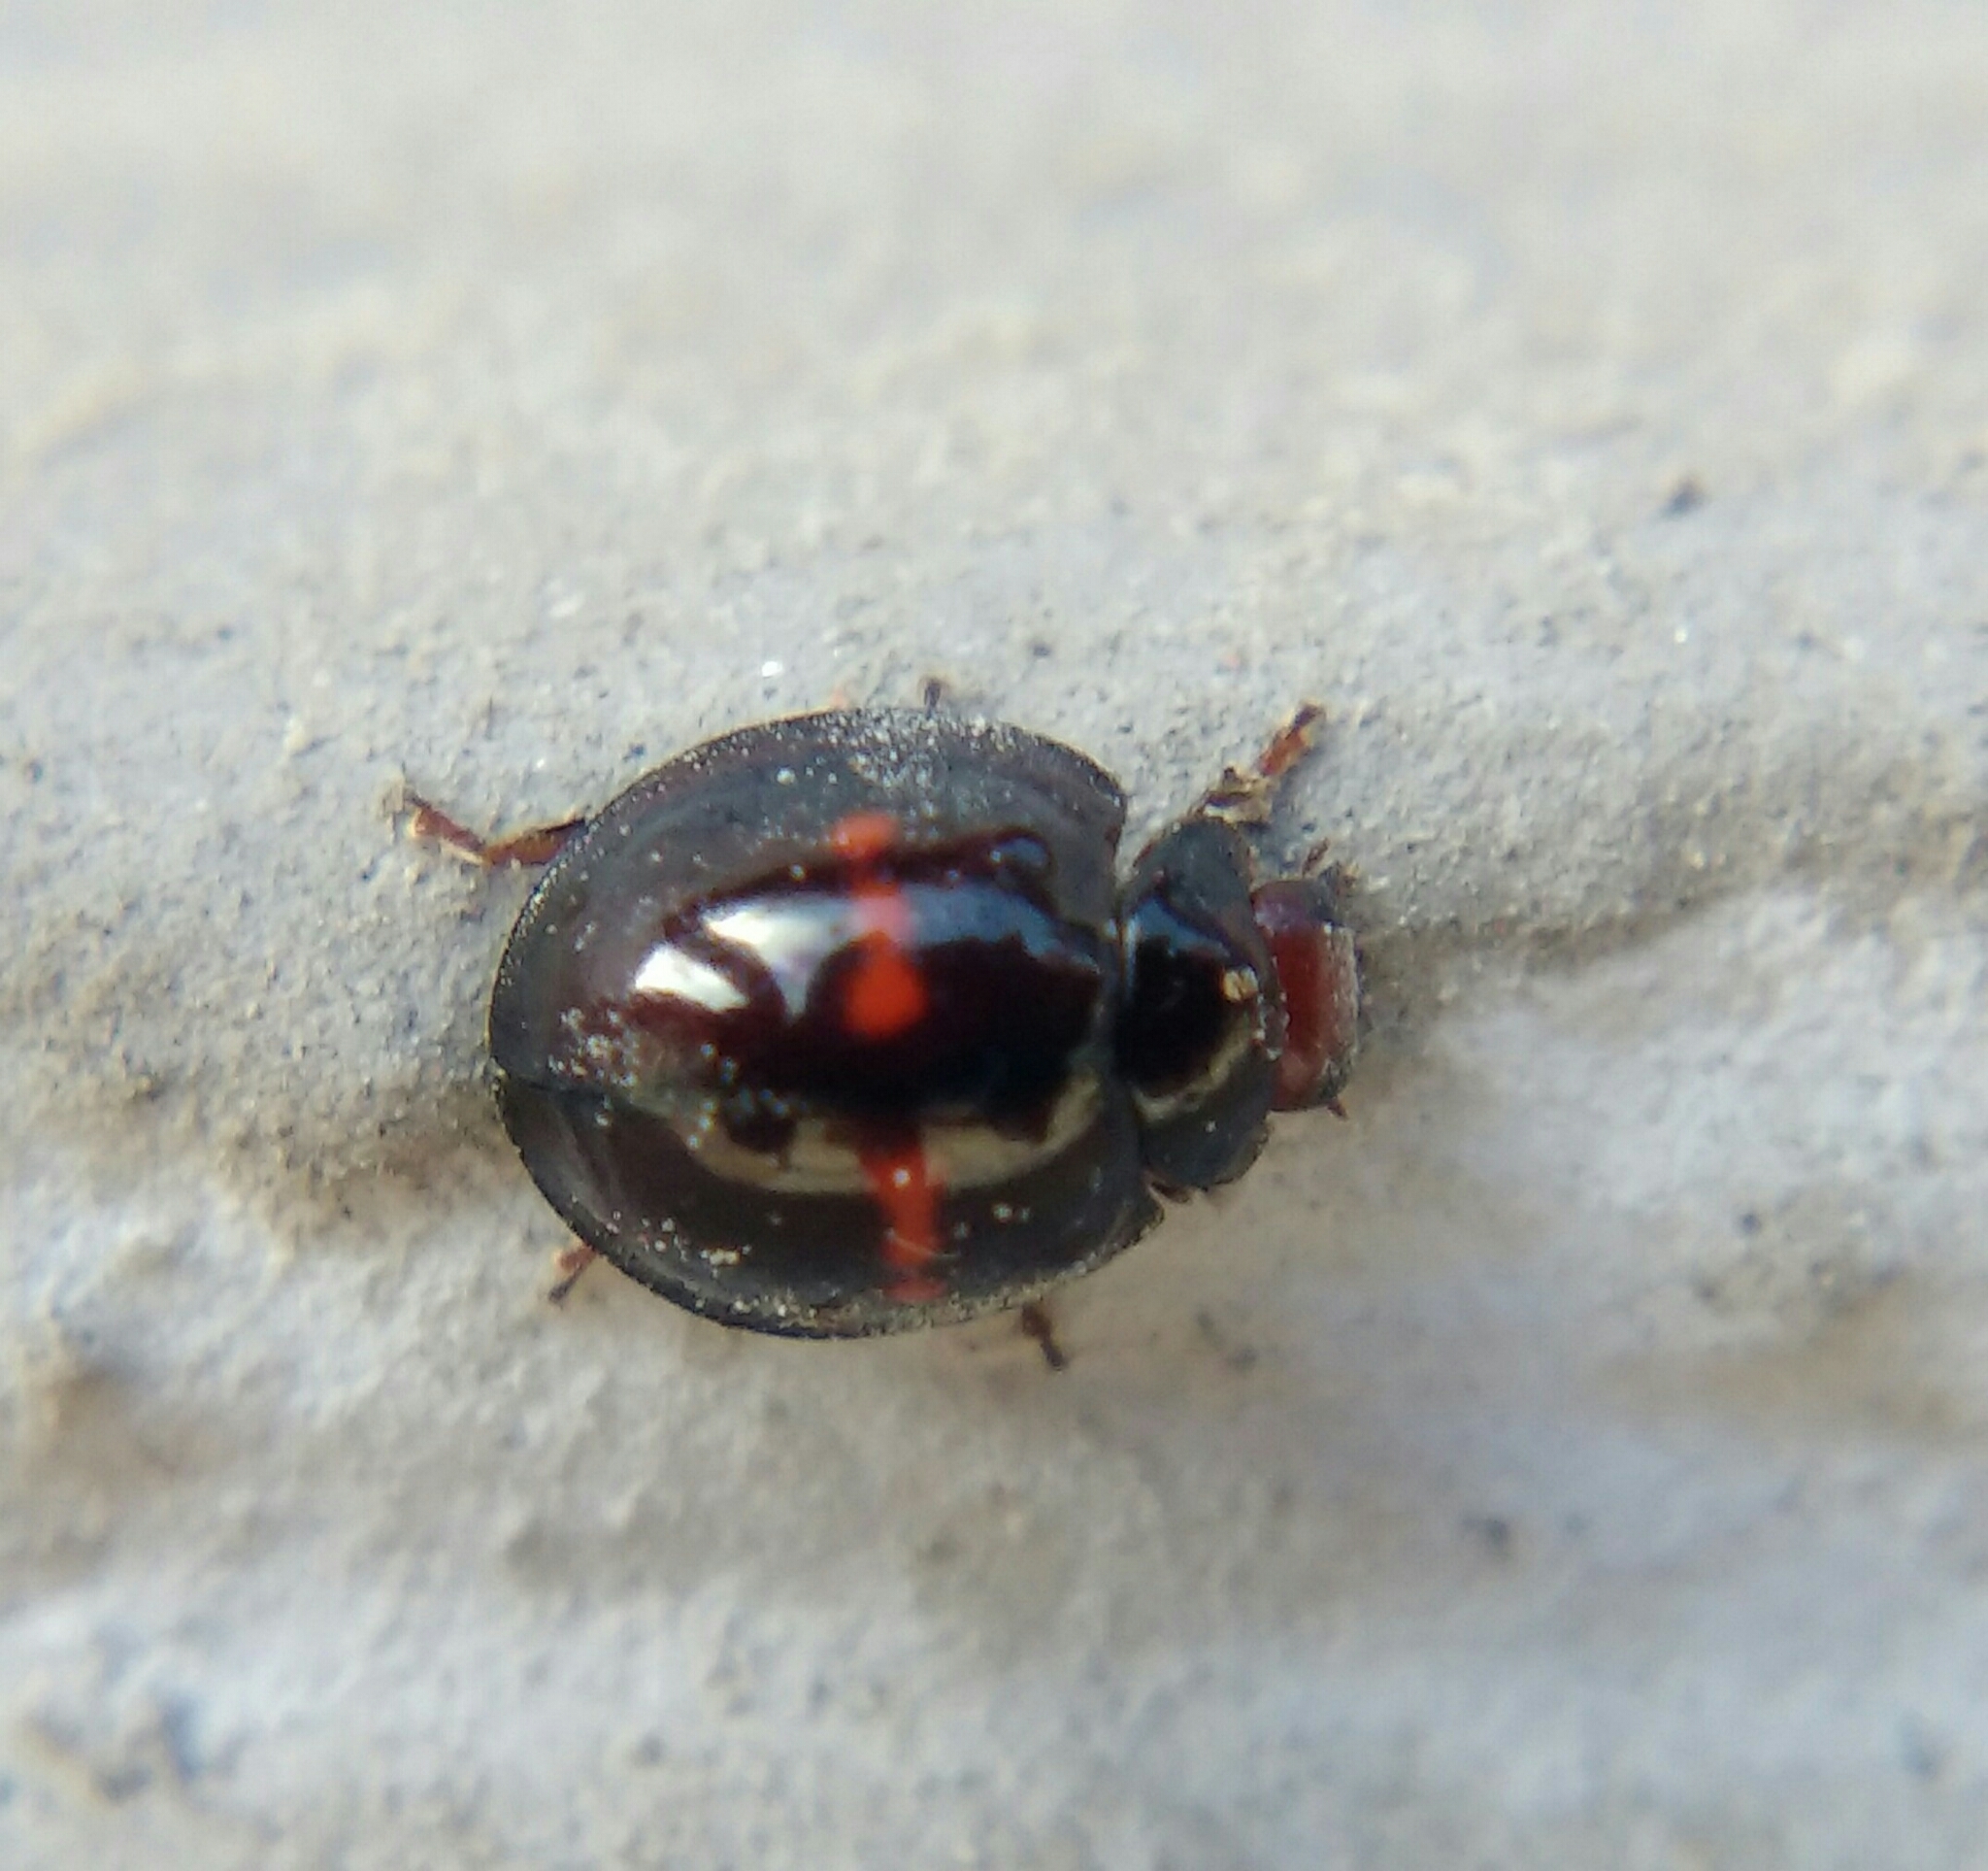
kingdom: Animalia
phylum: Arthropoda
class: Insecta
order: Coleoptera
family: Coccinellidae
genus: Chilocorus
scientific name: Chilocorus bipustulatus
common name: Heather ladybird
